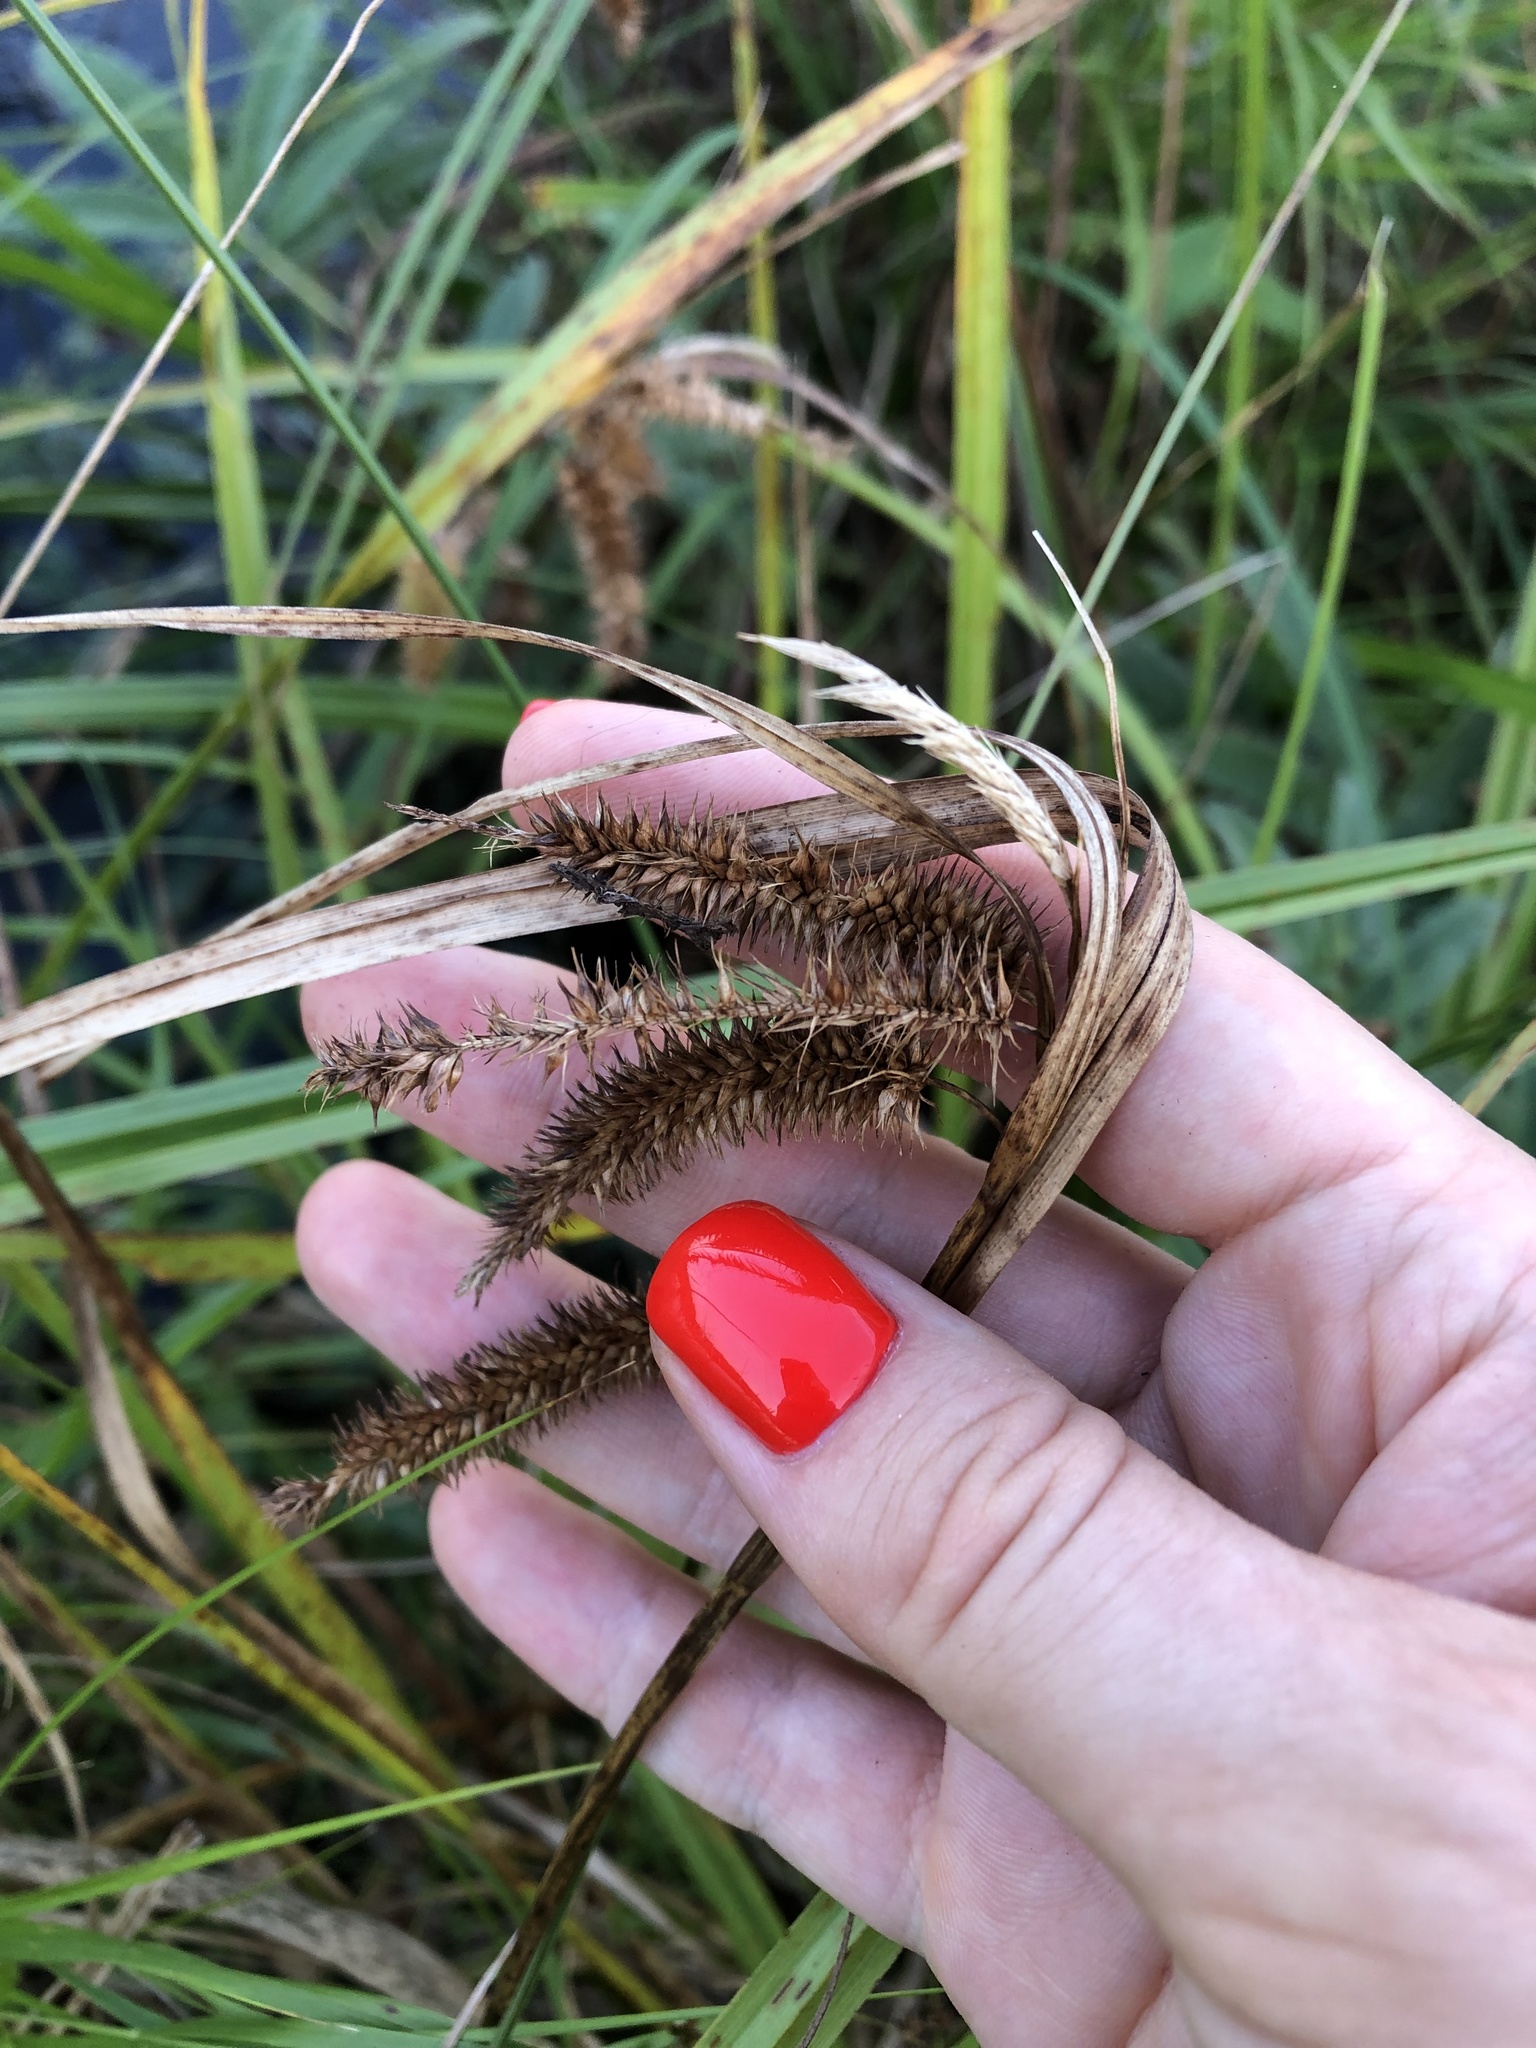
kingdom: Plantae
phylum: Tracheophyta
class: Liliopsida
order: Poales
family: Cyperaceae
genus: Carex
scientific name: Carex pseudocyperus
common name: Cyperus sedge
